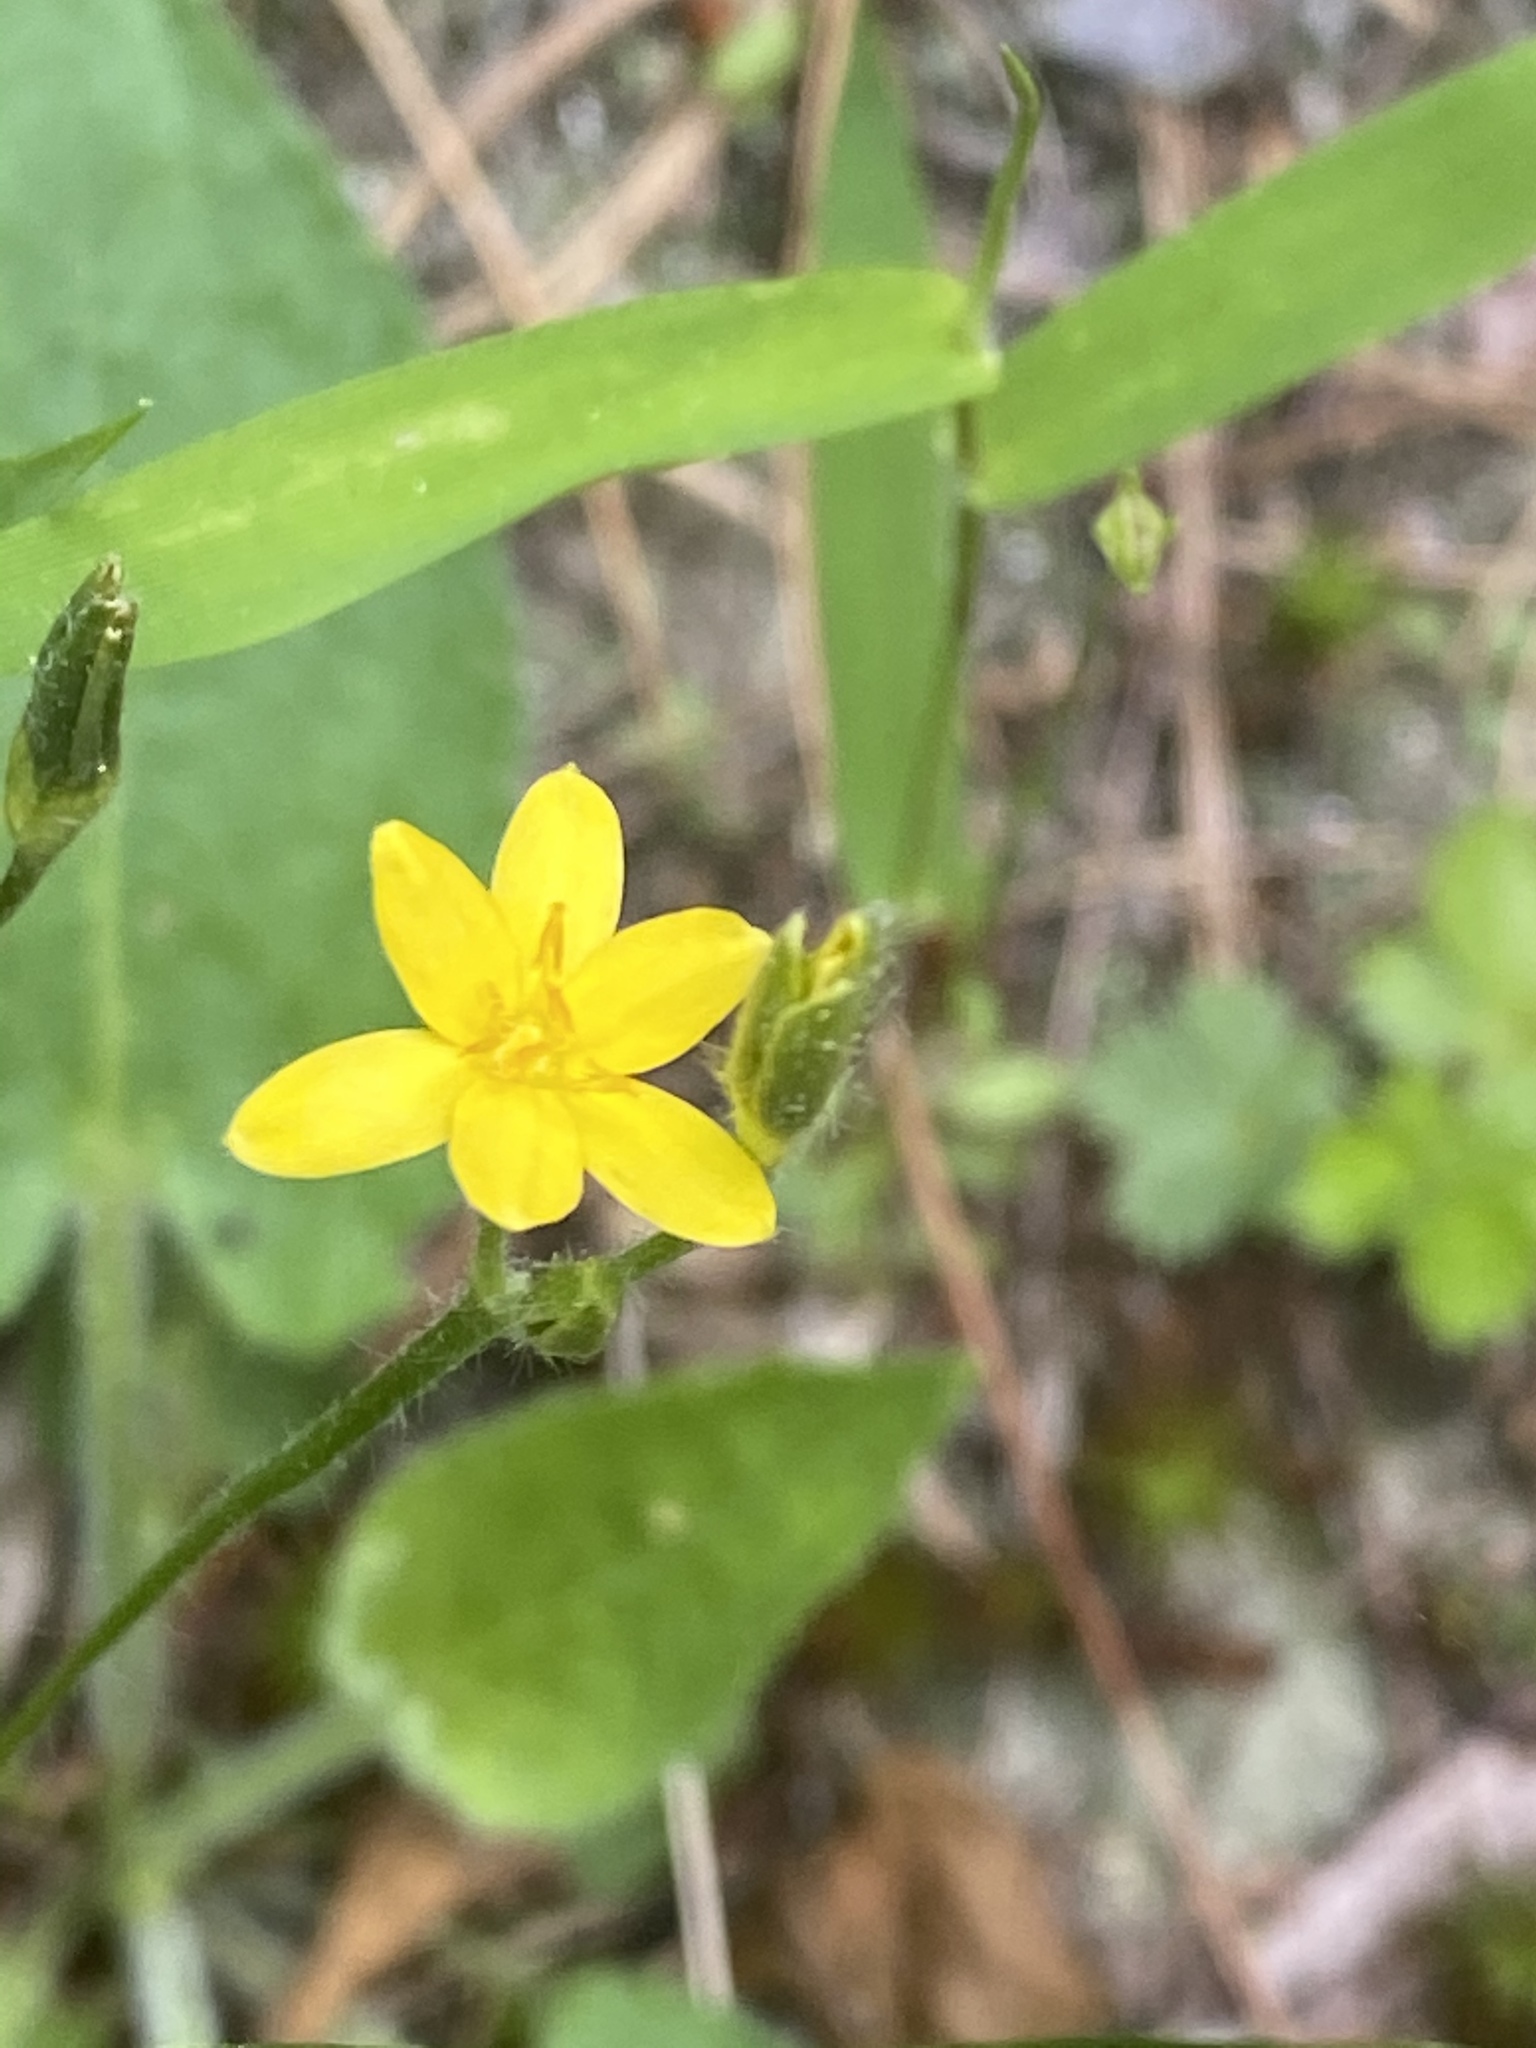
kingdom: Plantae
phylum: Tracheophyta
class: Liliopsida
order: Asparagales
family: Hypoxidaceae
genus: Hypoxis
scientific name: Hypoxis hirsuta
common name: Common goldstar
